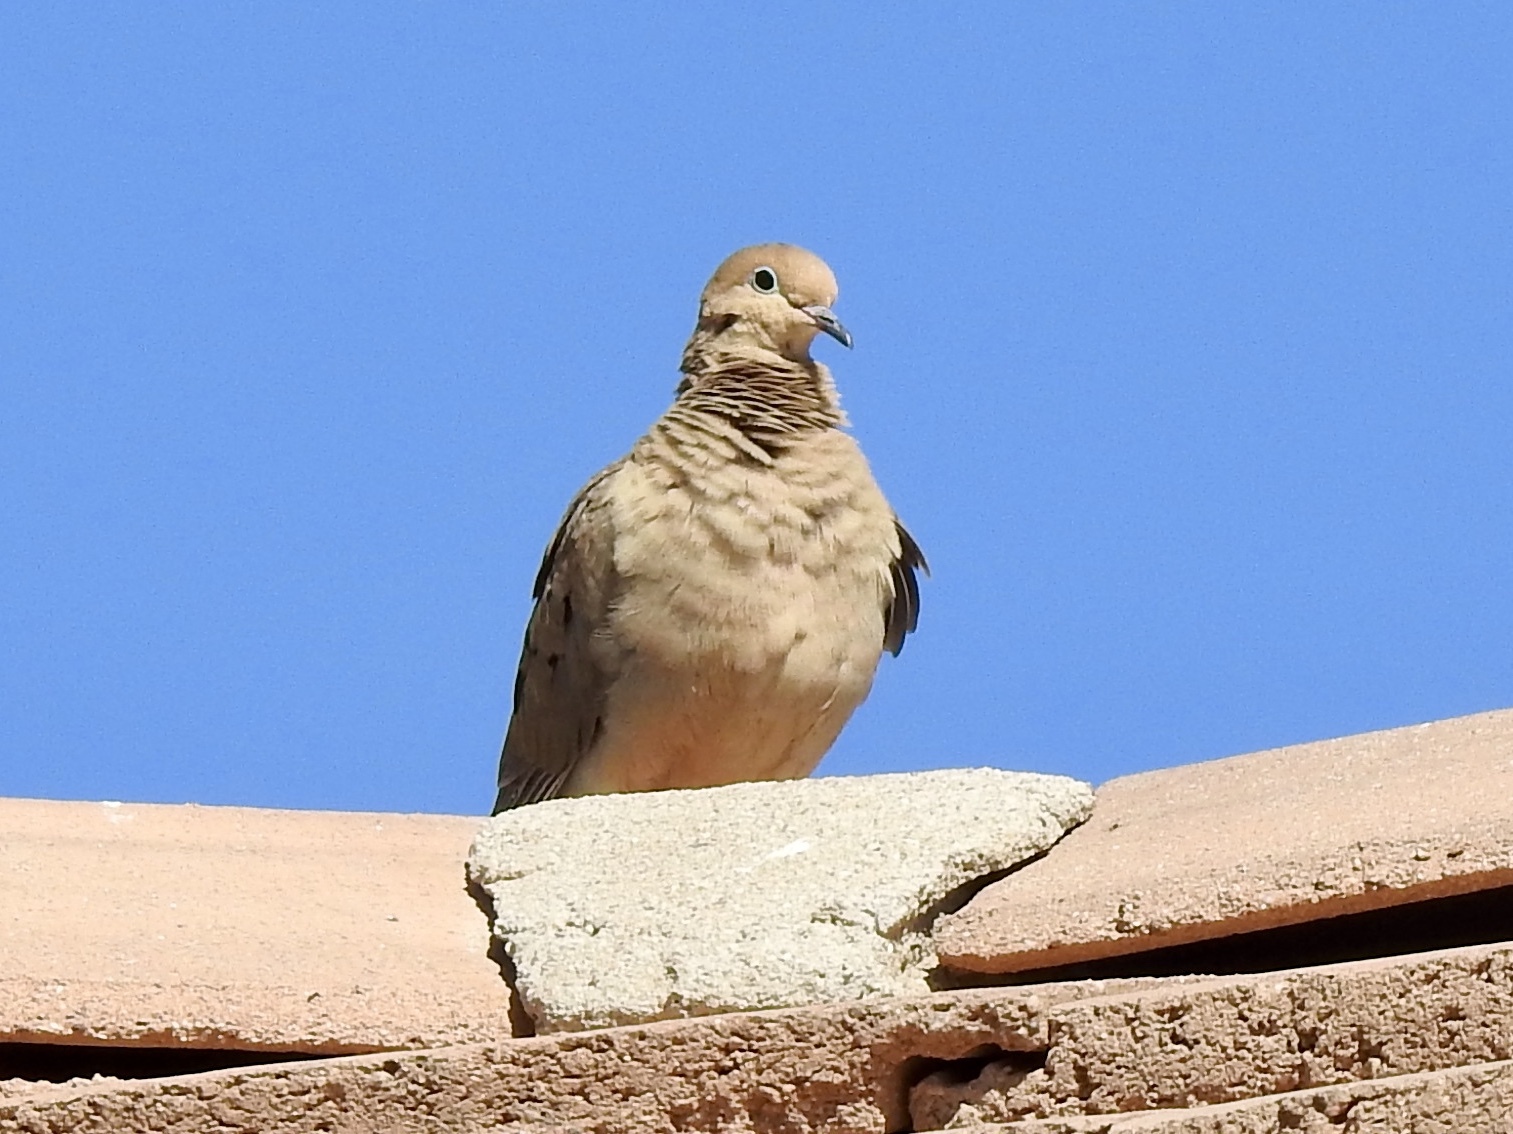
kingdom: Animalia
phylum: Chordata
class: Aves
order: Columbiformes
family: Columbidae
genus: Zenaida
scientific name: Zenaida macroura
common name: Mourning dove
